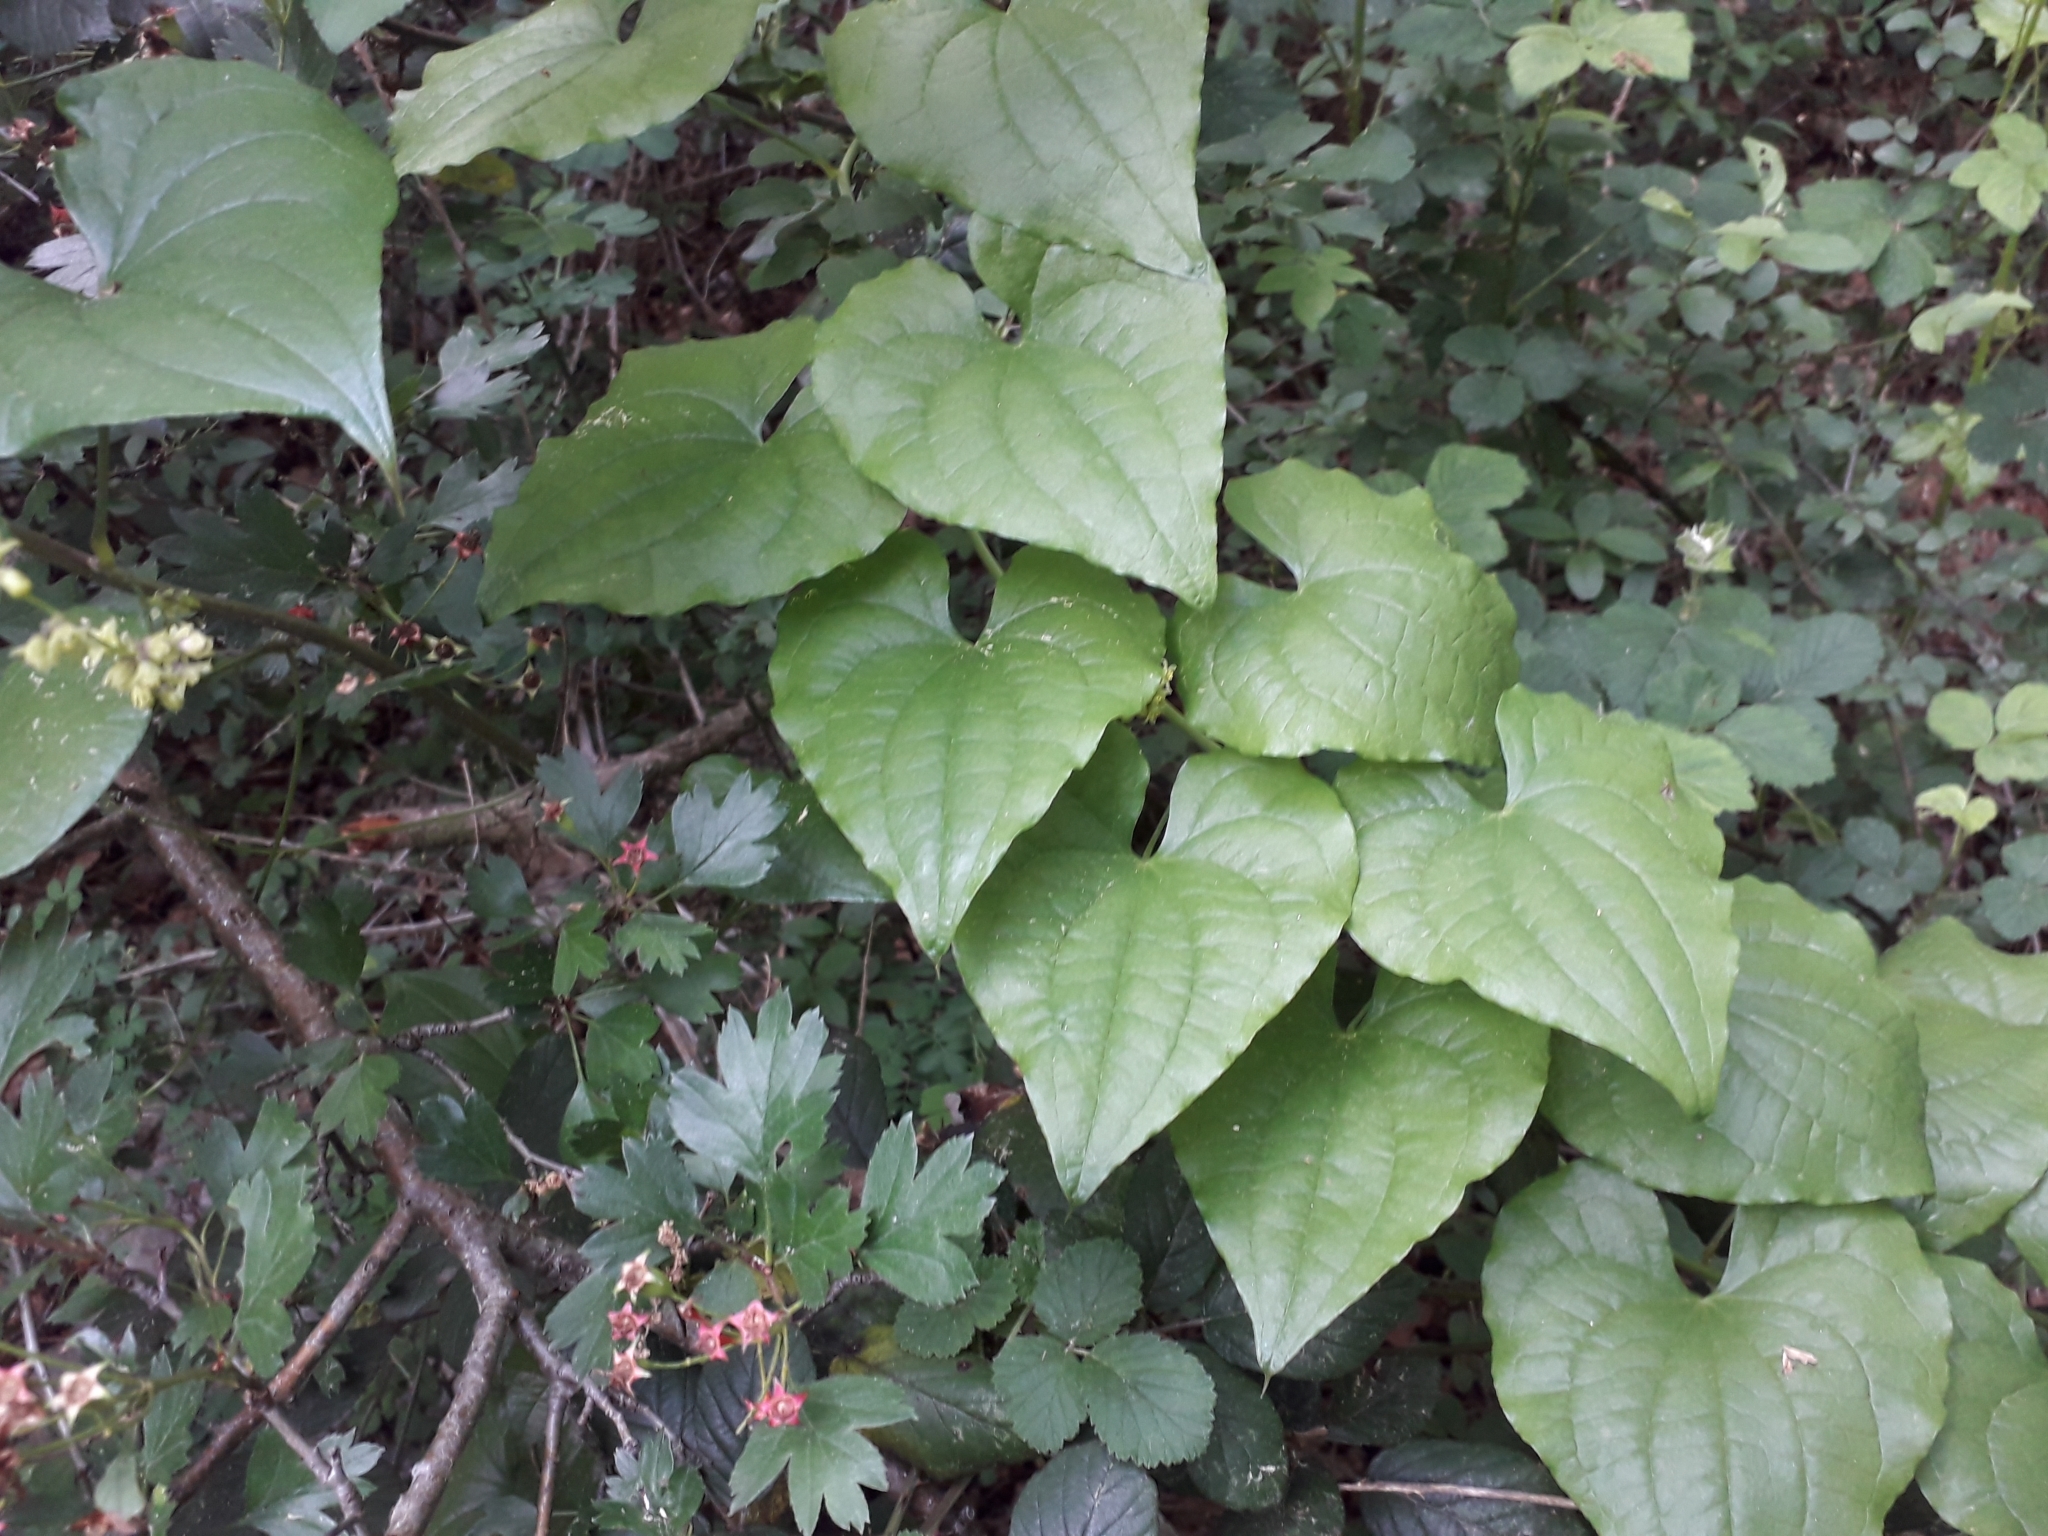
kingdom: Plantae
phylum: Tracheophyta
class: Liliopsida
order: Dioscoreales
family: Dioscoreaceae
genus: Dioscorea
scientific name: Dioscorea communis
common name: Black-bindweed
